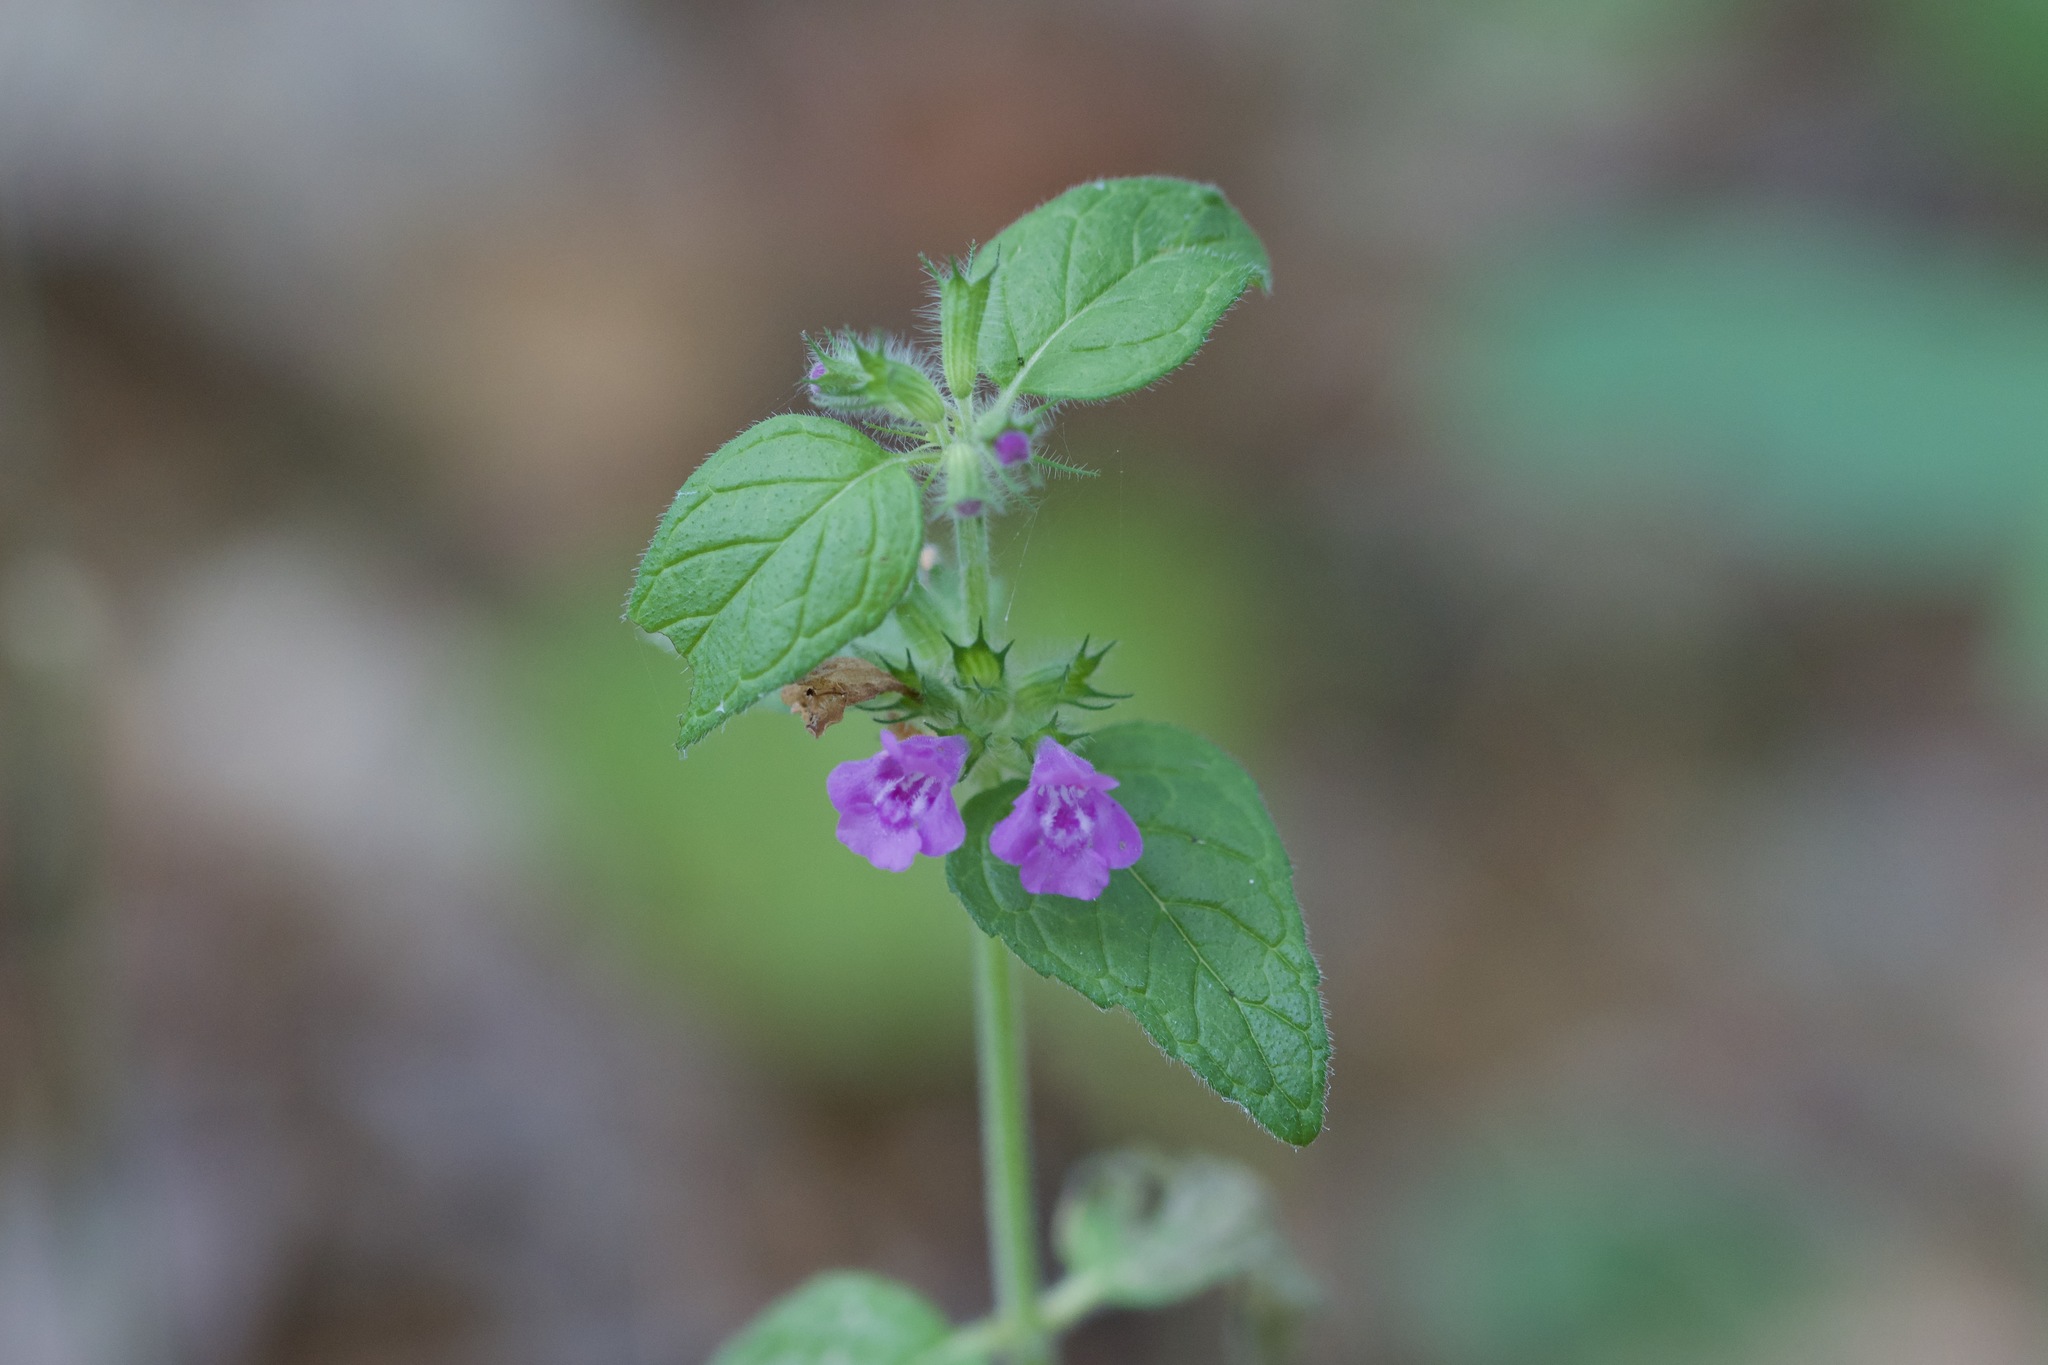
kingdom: Plantae
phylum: Tracheophyta
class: Magnoliopsida
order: Lamiales
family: Lamiaceae
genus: Clinopodium
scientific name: Clinopodium vulgare
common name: Wild basil
